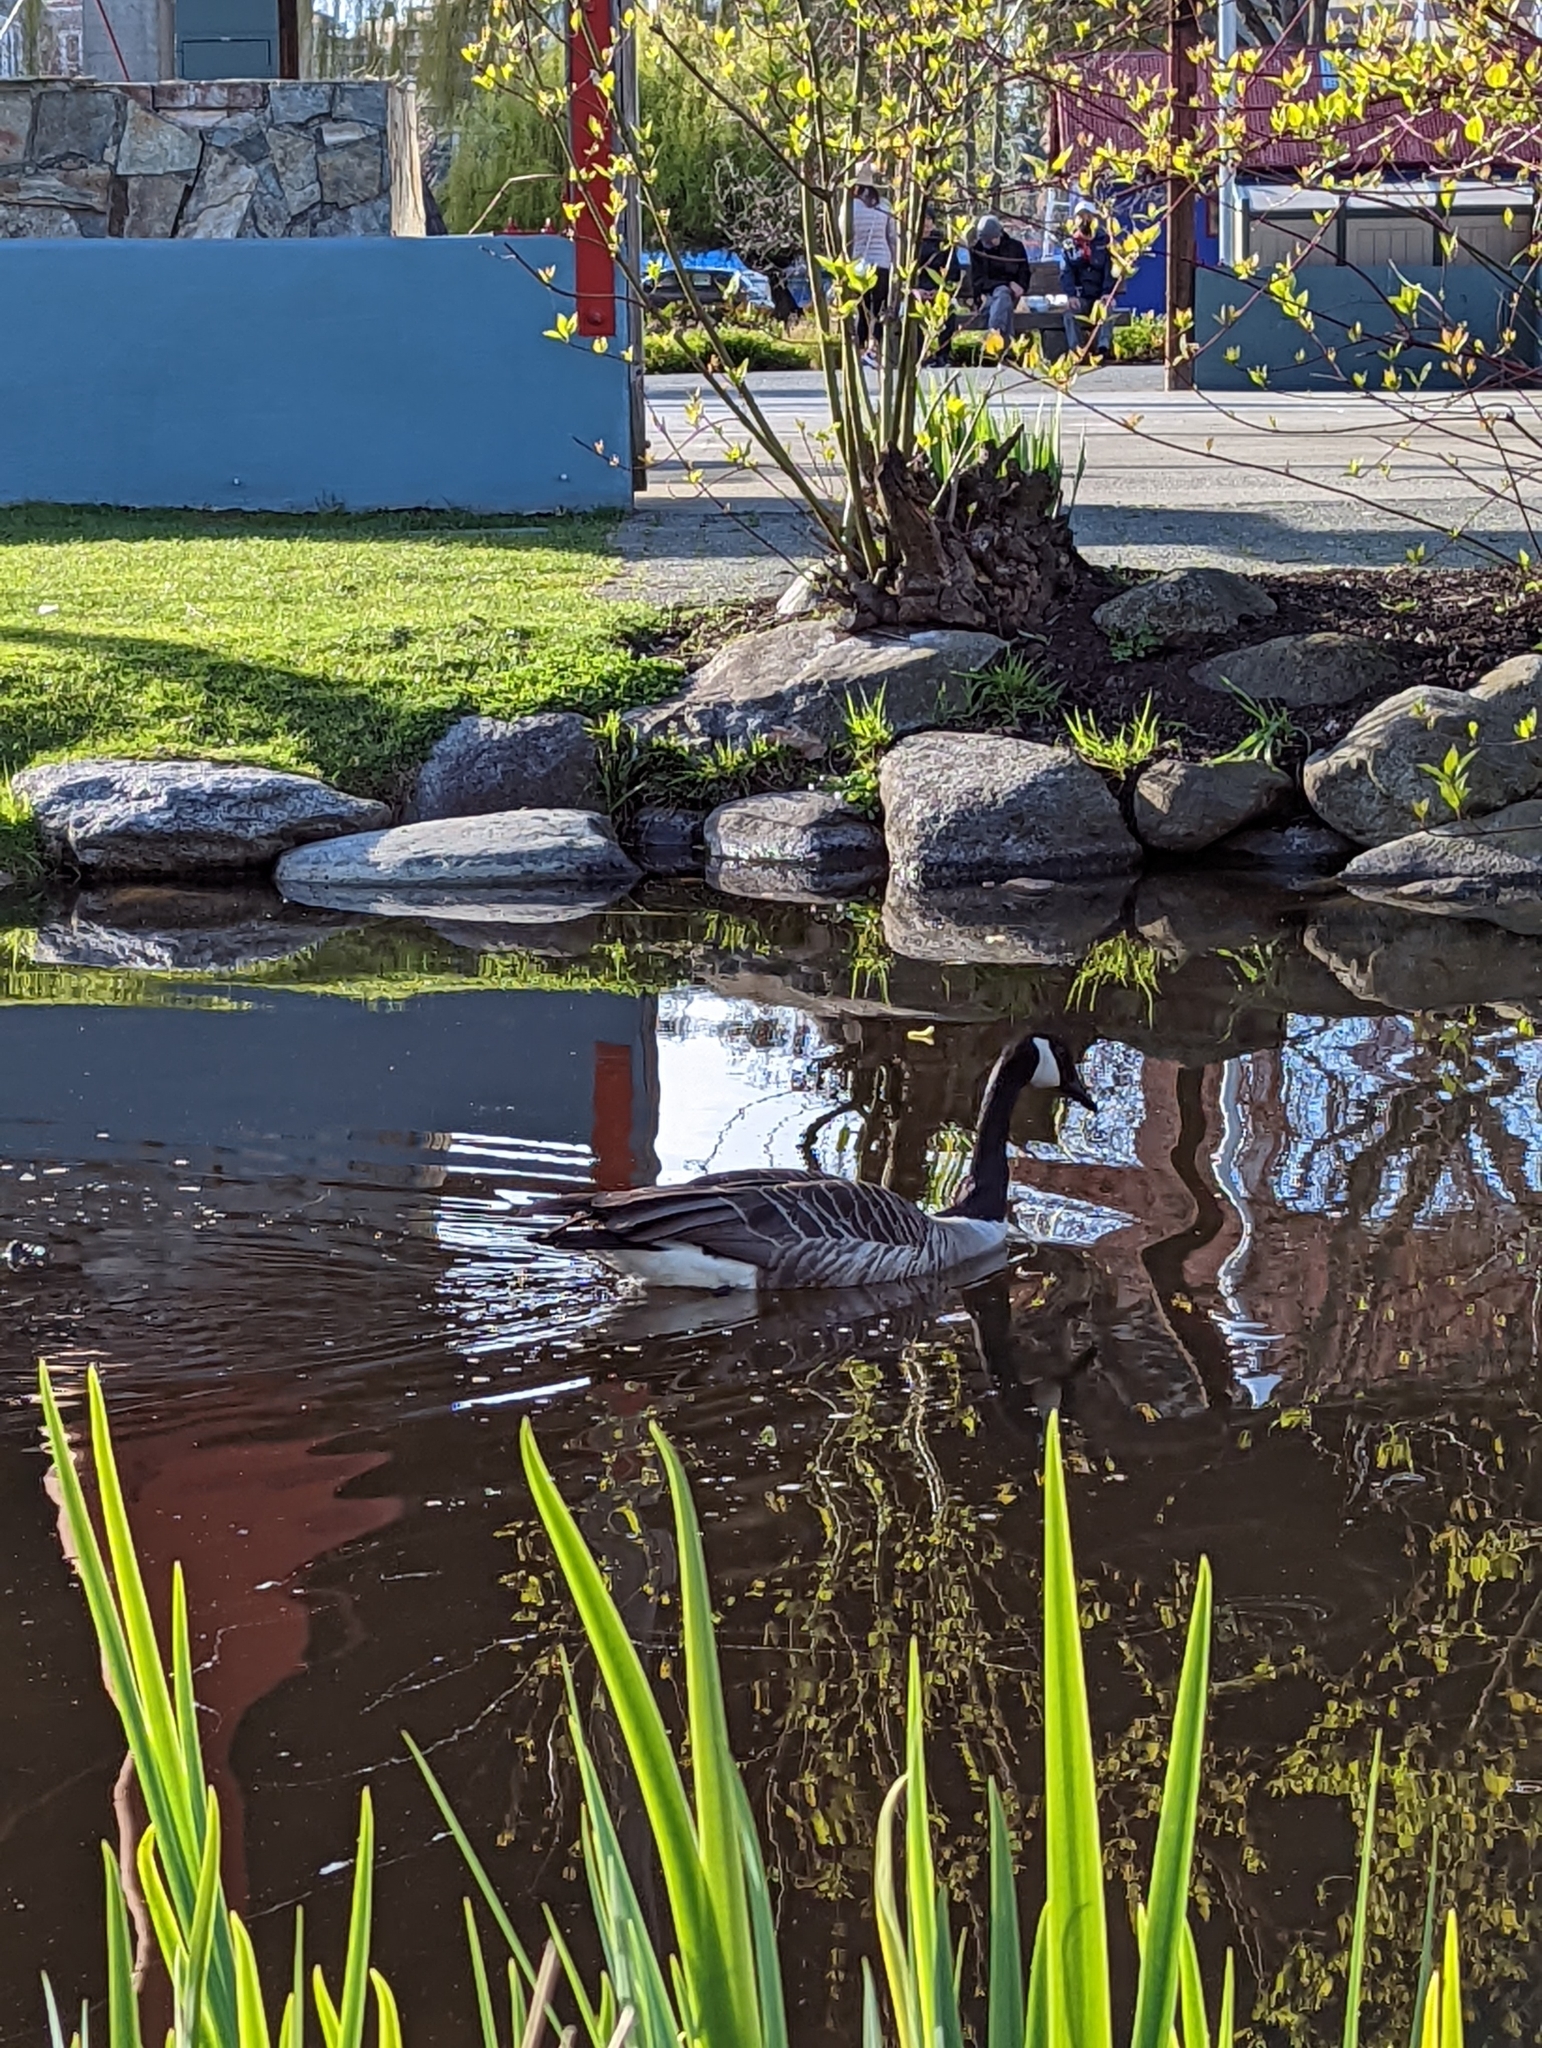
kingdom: Animalia
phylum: Chordata
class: Aves
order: Anseriformes
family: Anatidae
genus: Branta
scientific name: Branta canadensis
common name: Canada goose
